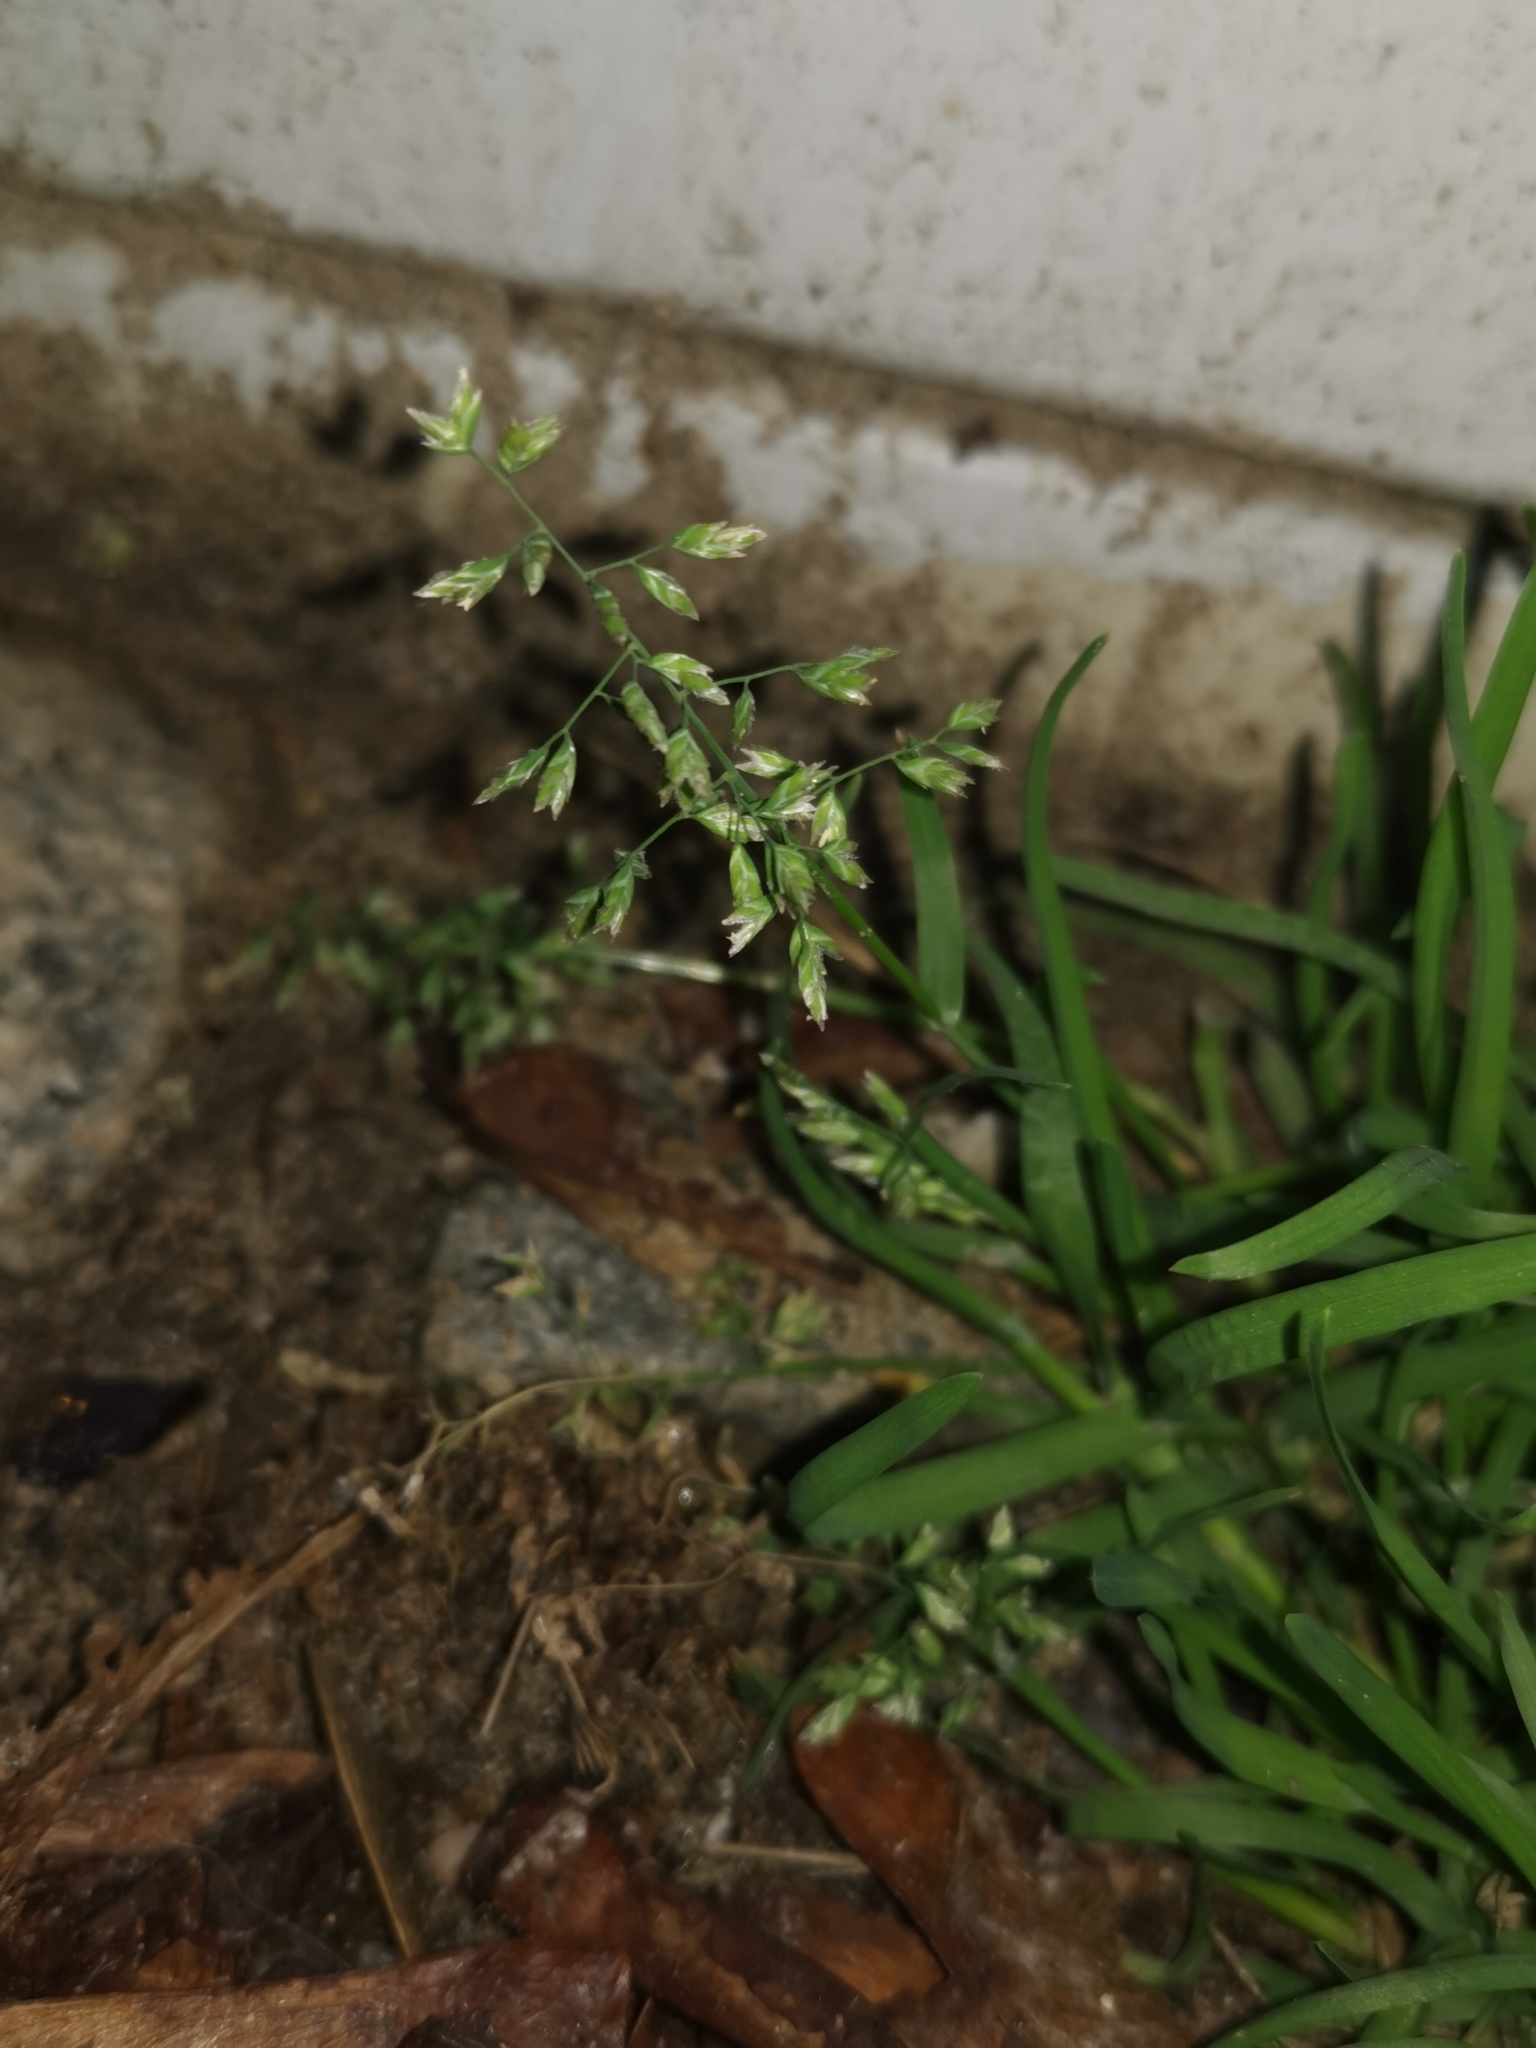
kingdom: Plantae
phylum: Tracheophyta
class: Liliopsida
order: Poales
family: Poaceae
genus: Poa
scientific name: Poa annua
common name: Annual bluegrass
